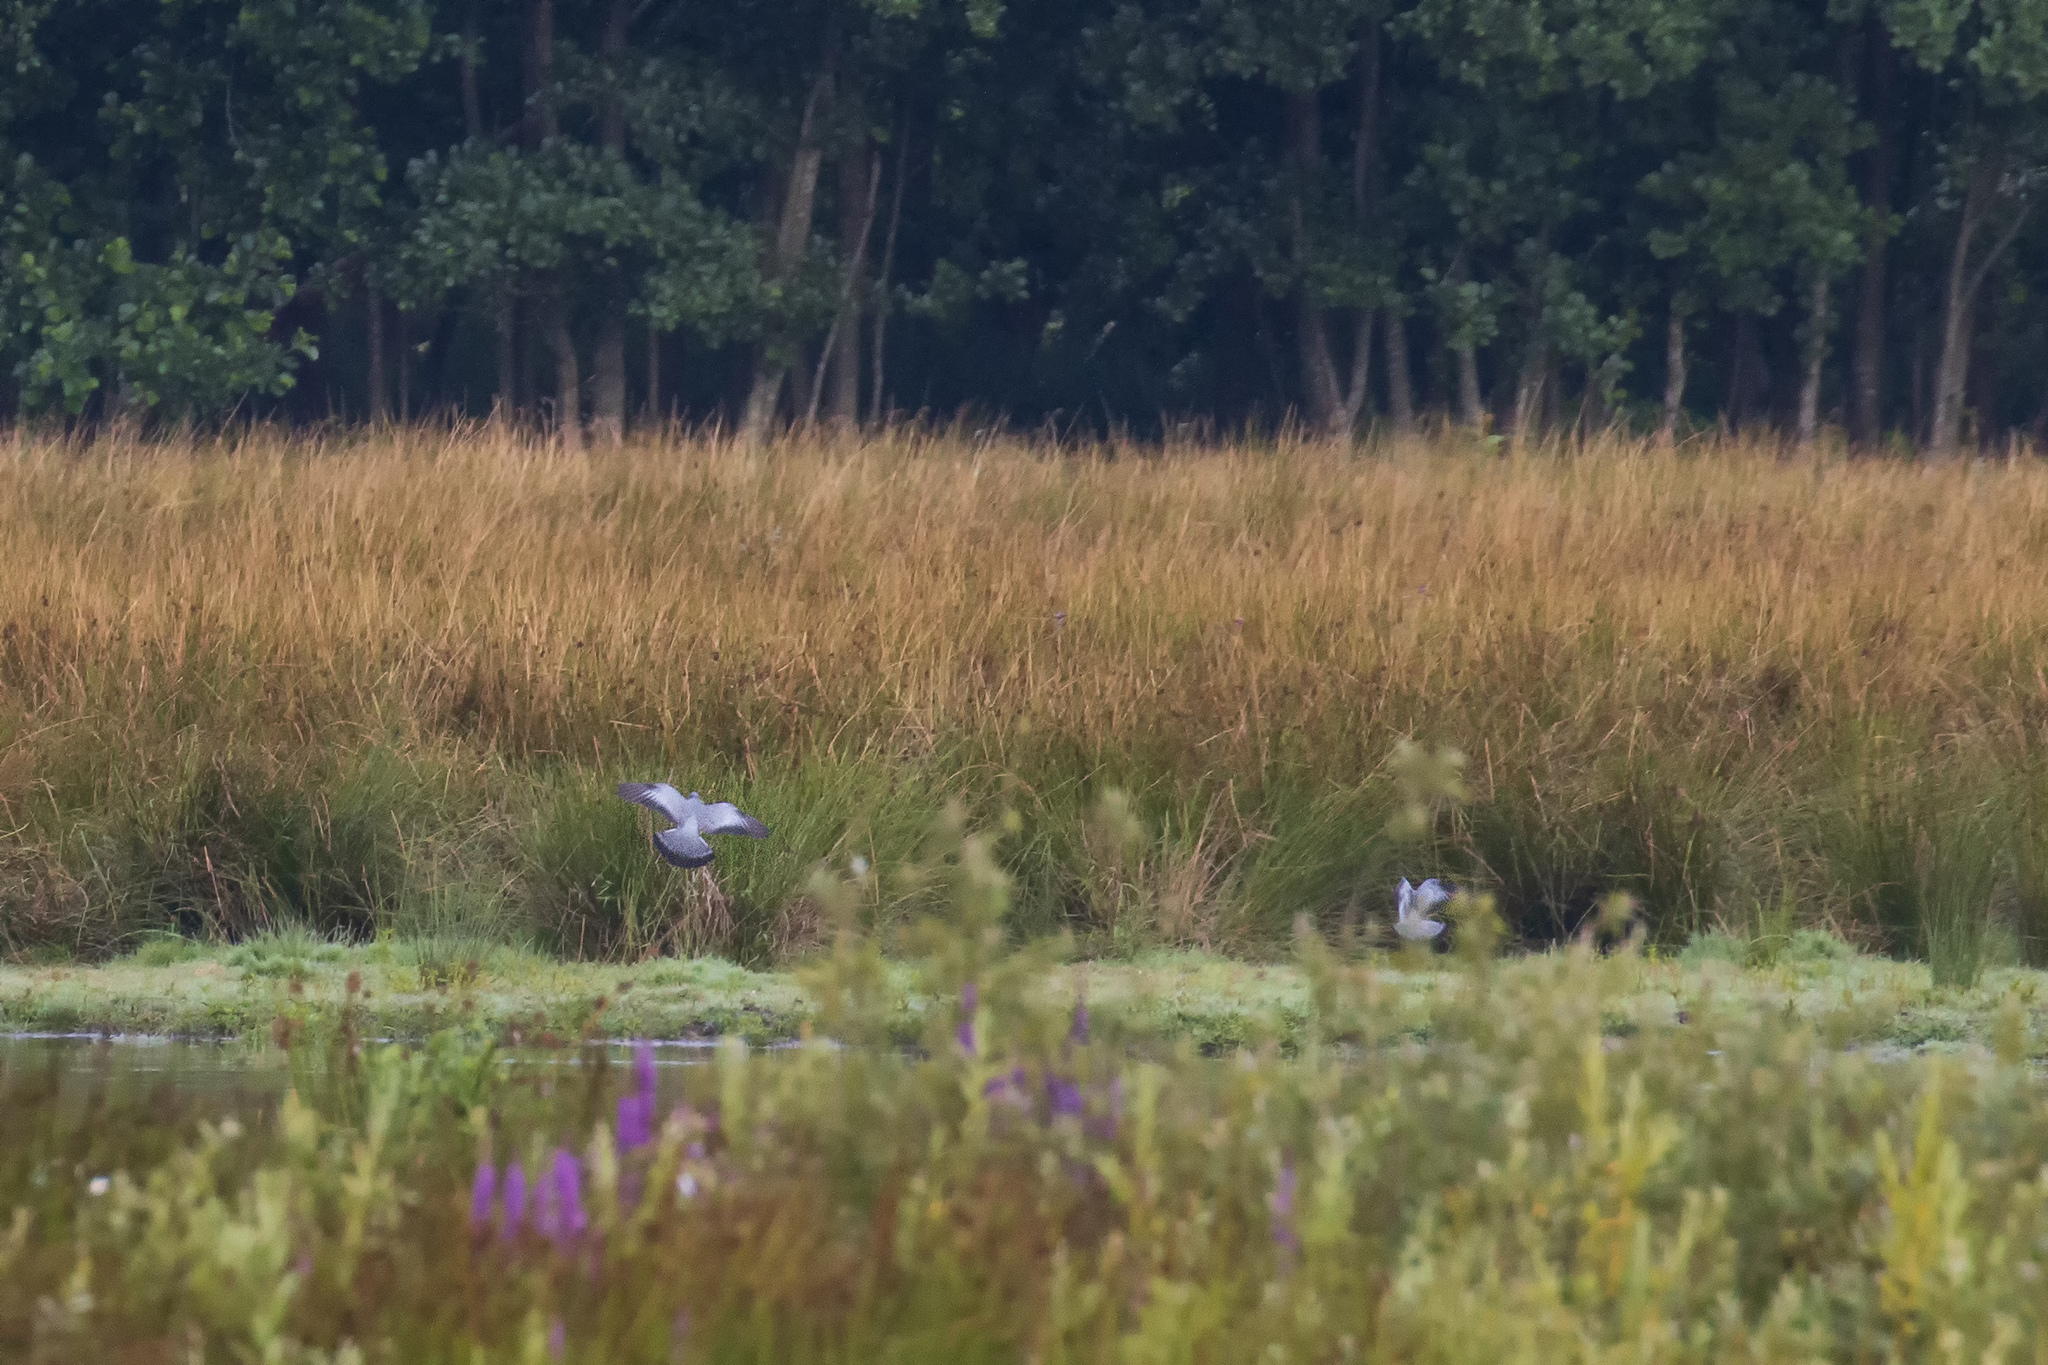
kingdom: Animalia
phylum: Chordata
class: Aves
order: Columbiformes
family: Columbidae
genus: Columba
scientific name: Columba oenas
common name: Stock dove
